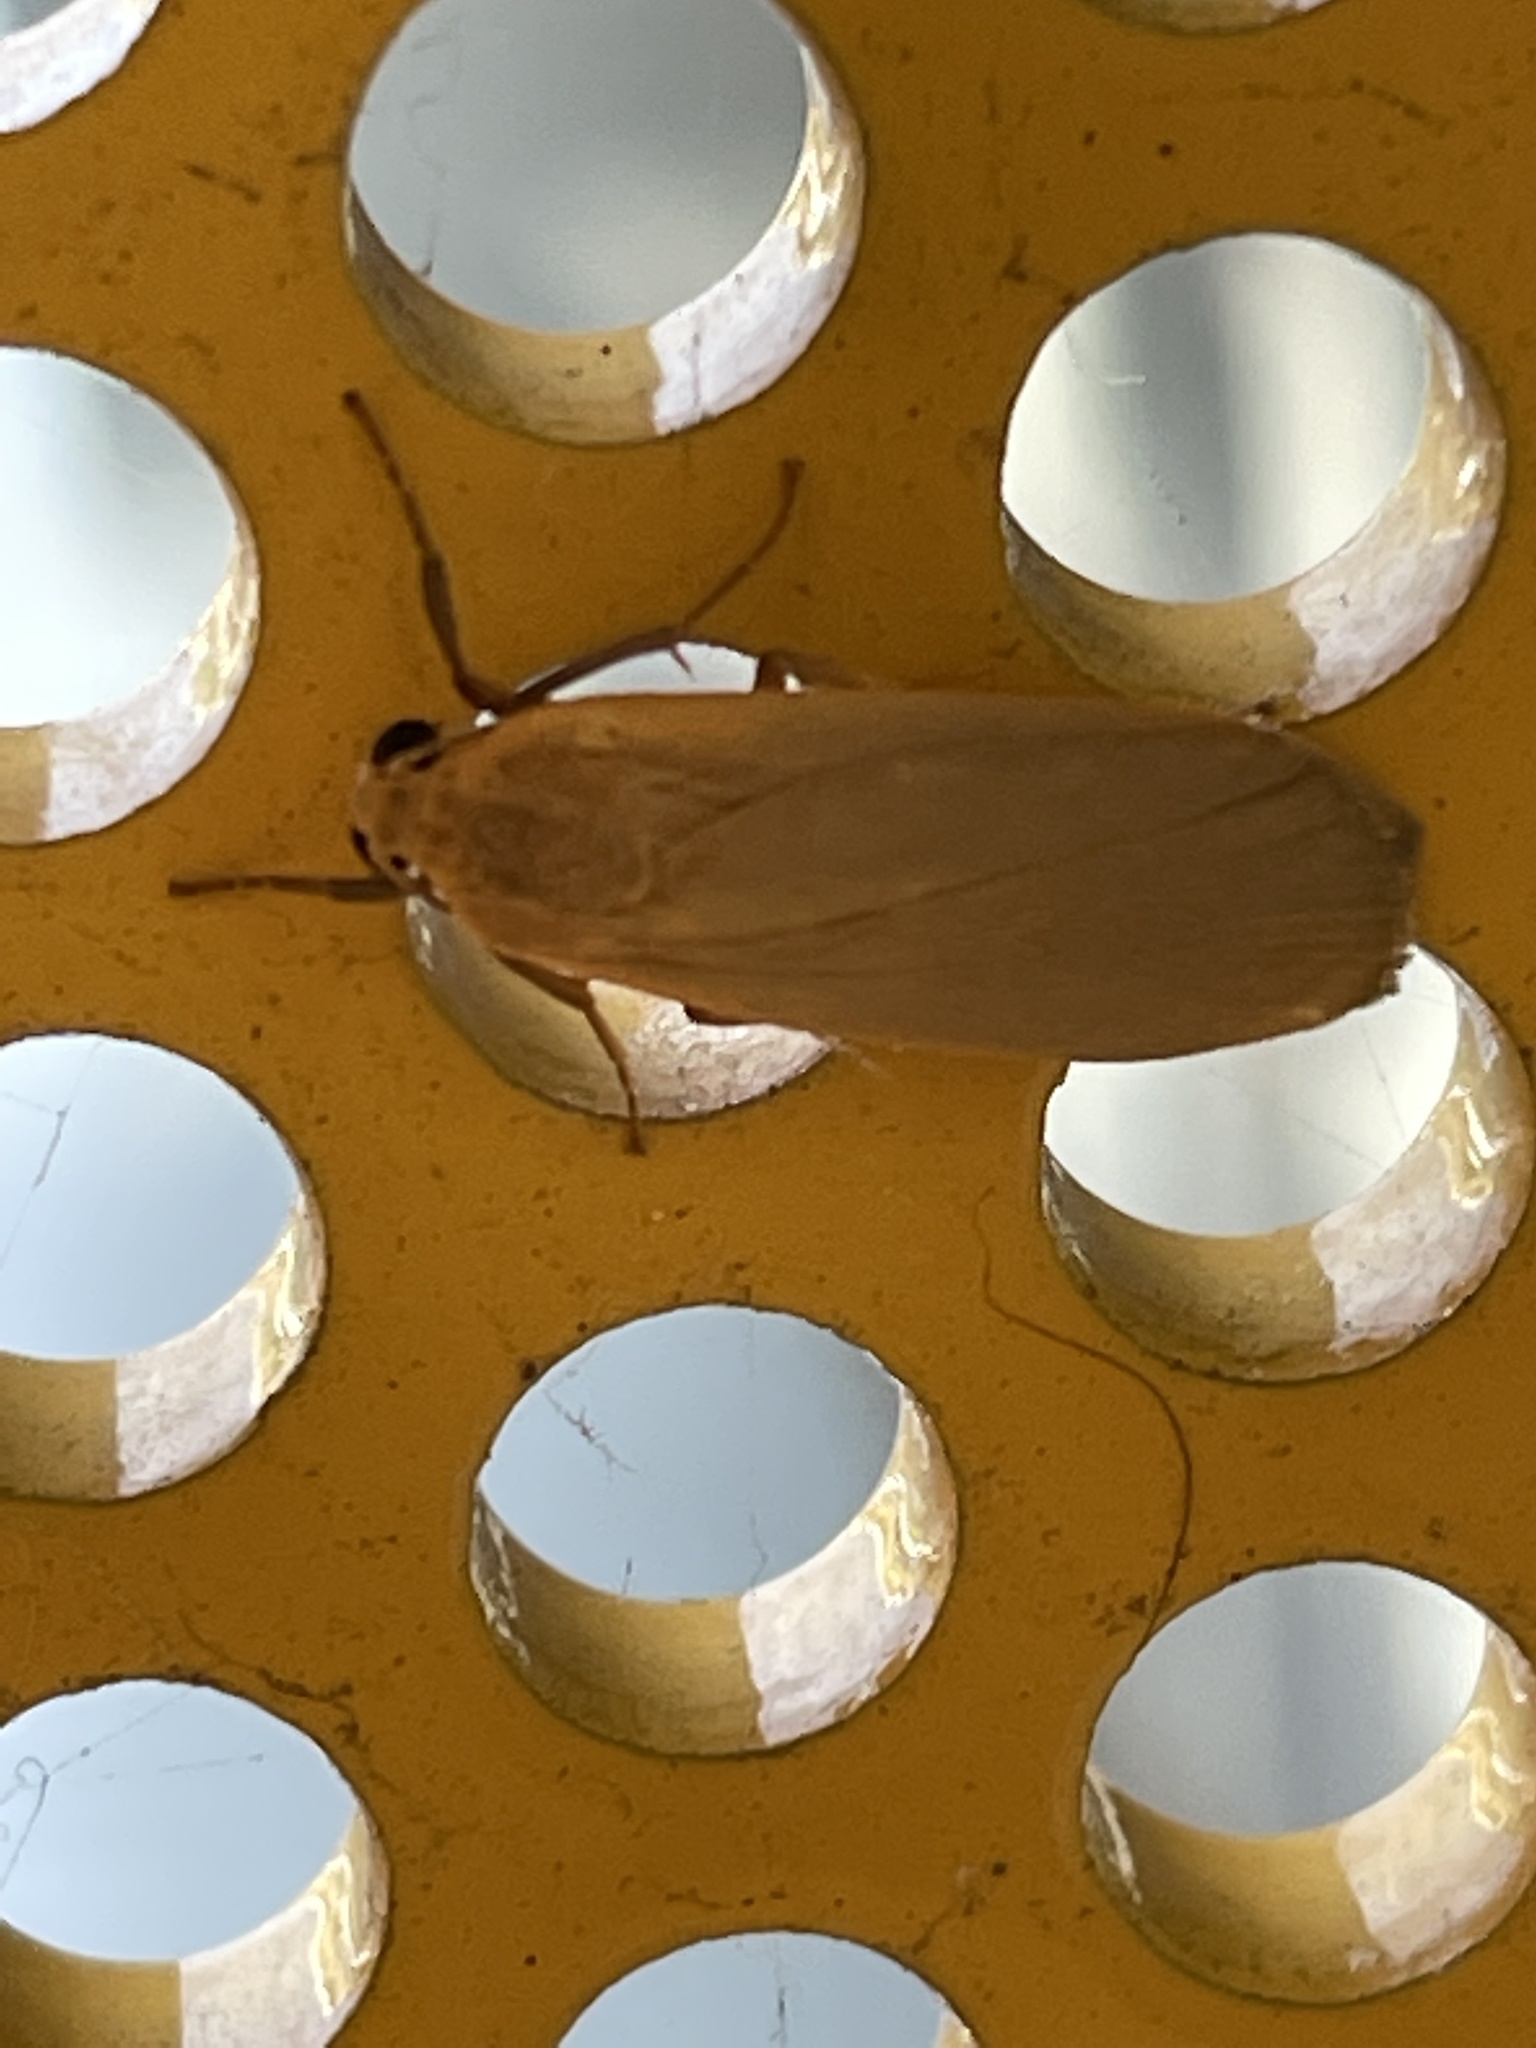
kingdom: Animalia
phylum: Arthropoda
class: Insecta
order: Lepidoptera
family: Erebidae
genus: Eilema
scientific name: Eilema plana
